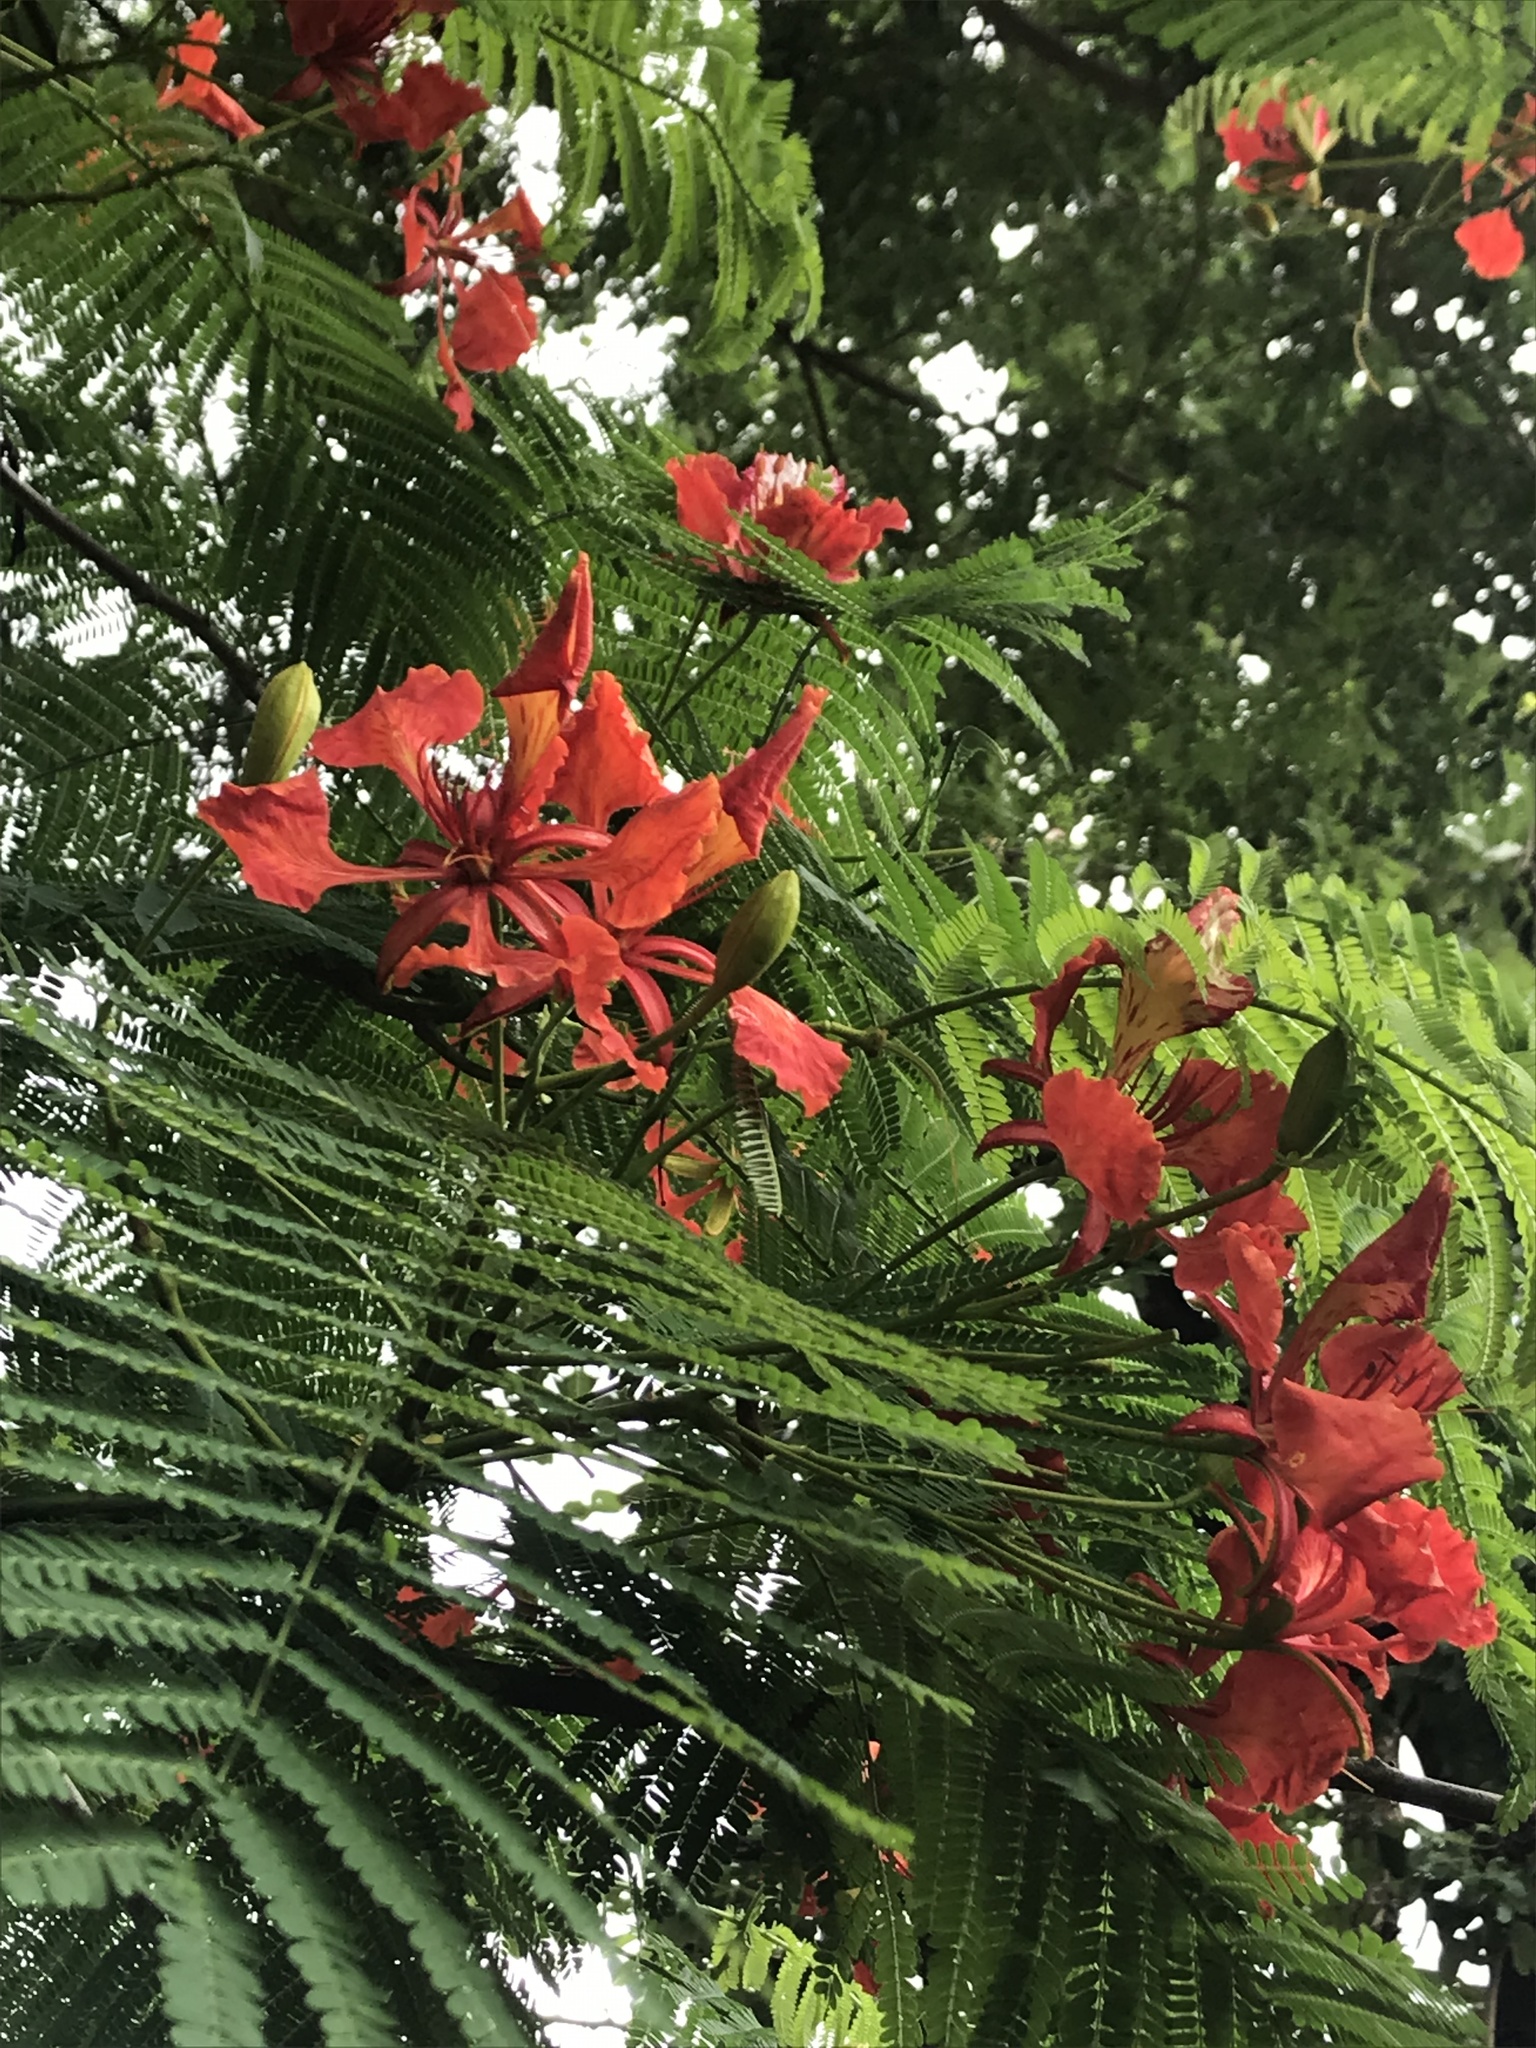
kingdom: Plantae
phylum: Tracheophyta
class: Magnoliopsida
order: Fabales
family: Fabaceae
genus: Delonix
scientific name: Delonix regia
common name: Royal poinciana
